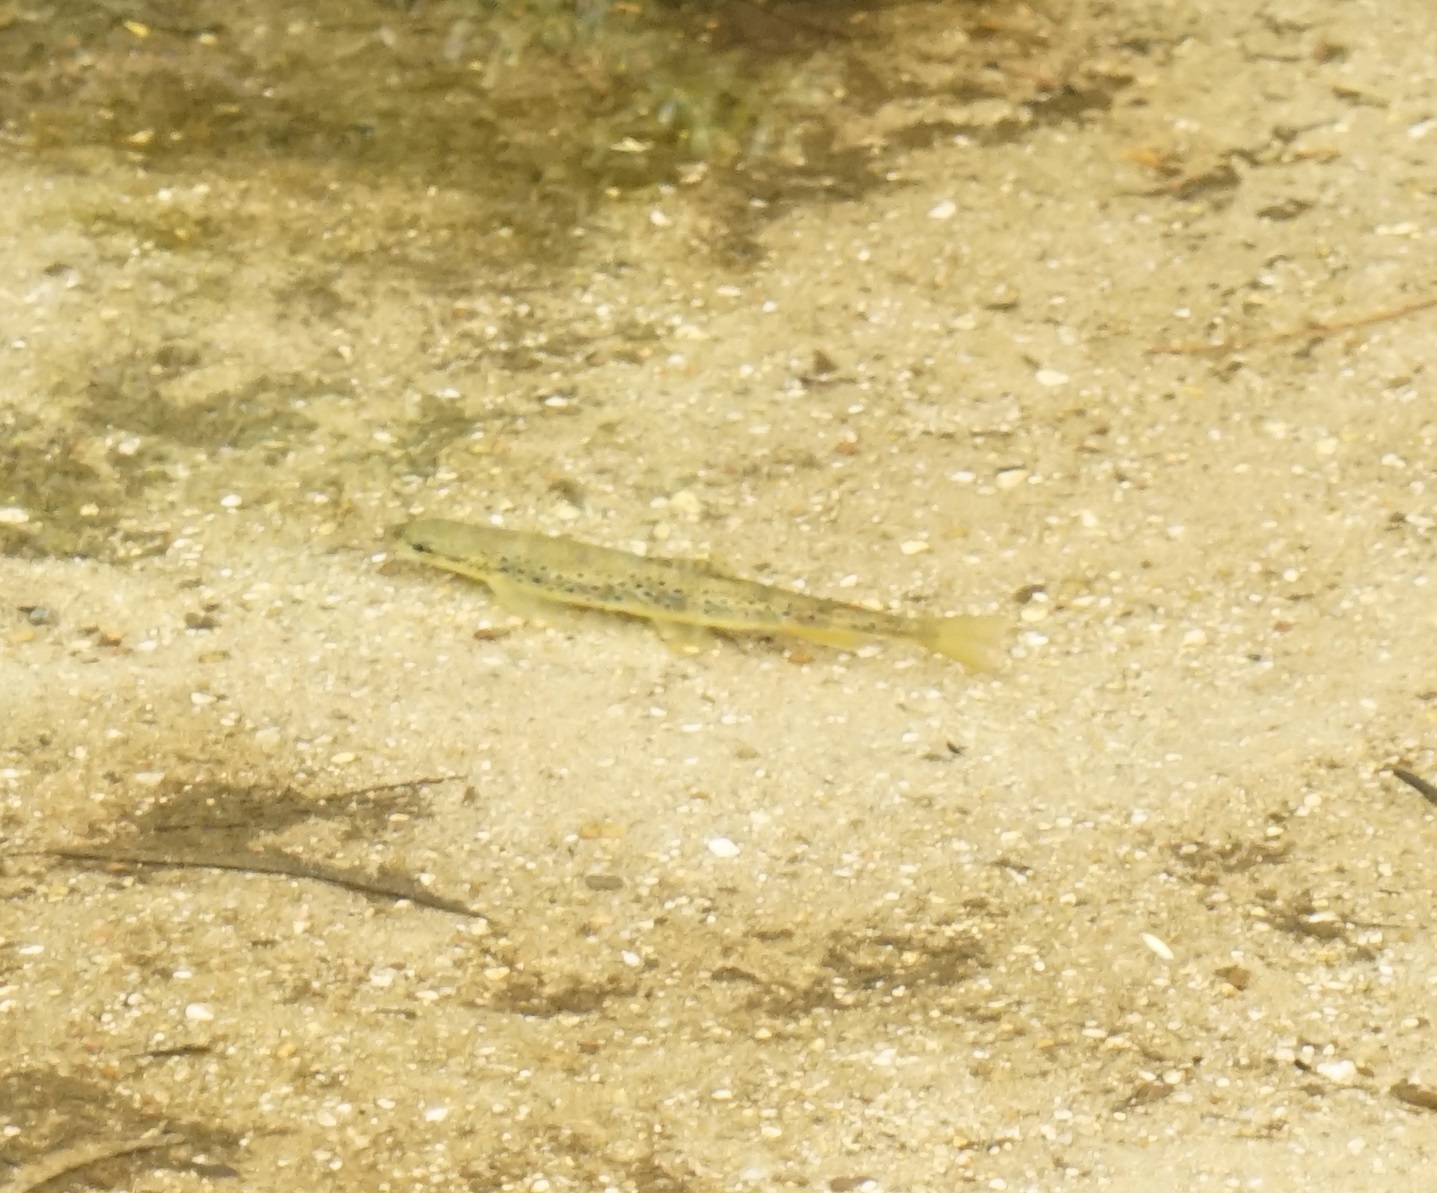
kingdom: Animalia
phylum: Chordata
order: Salmoniformes
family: Salmonidae
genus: Salmo
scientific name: Salmo trutta
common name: Brown trout
